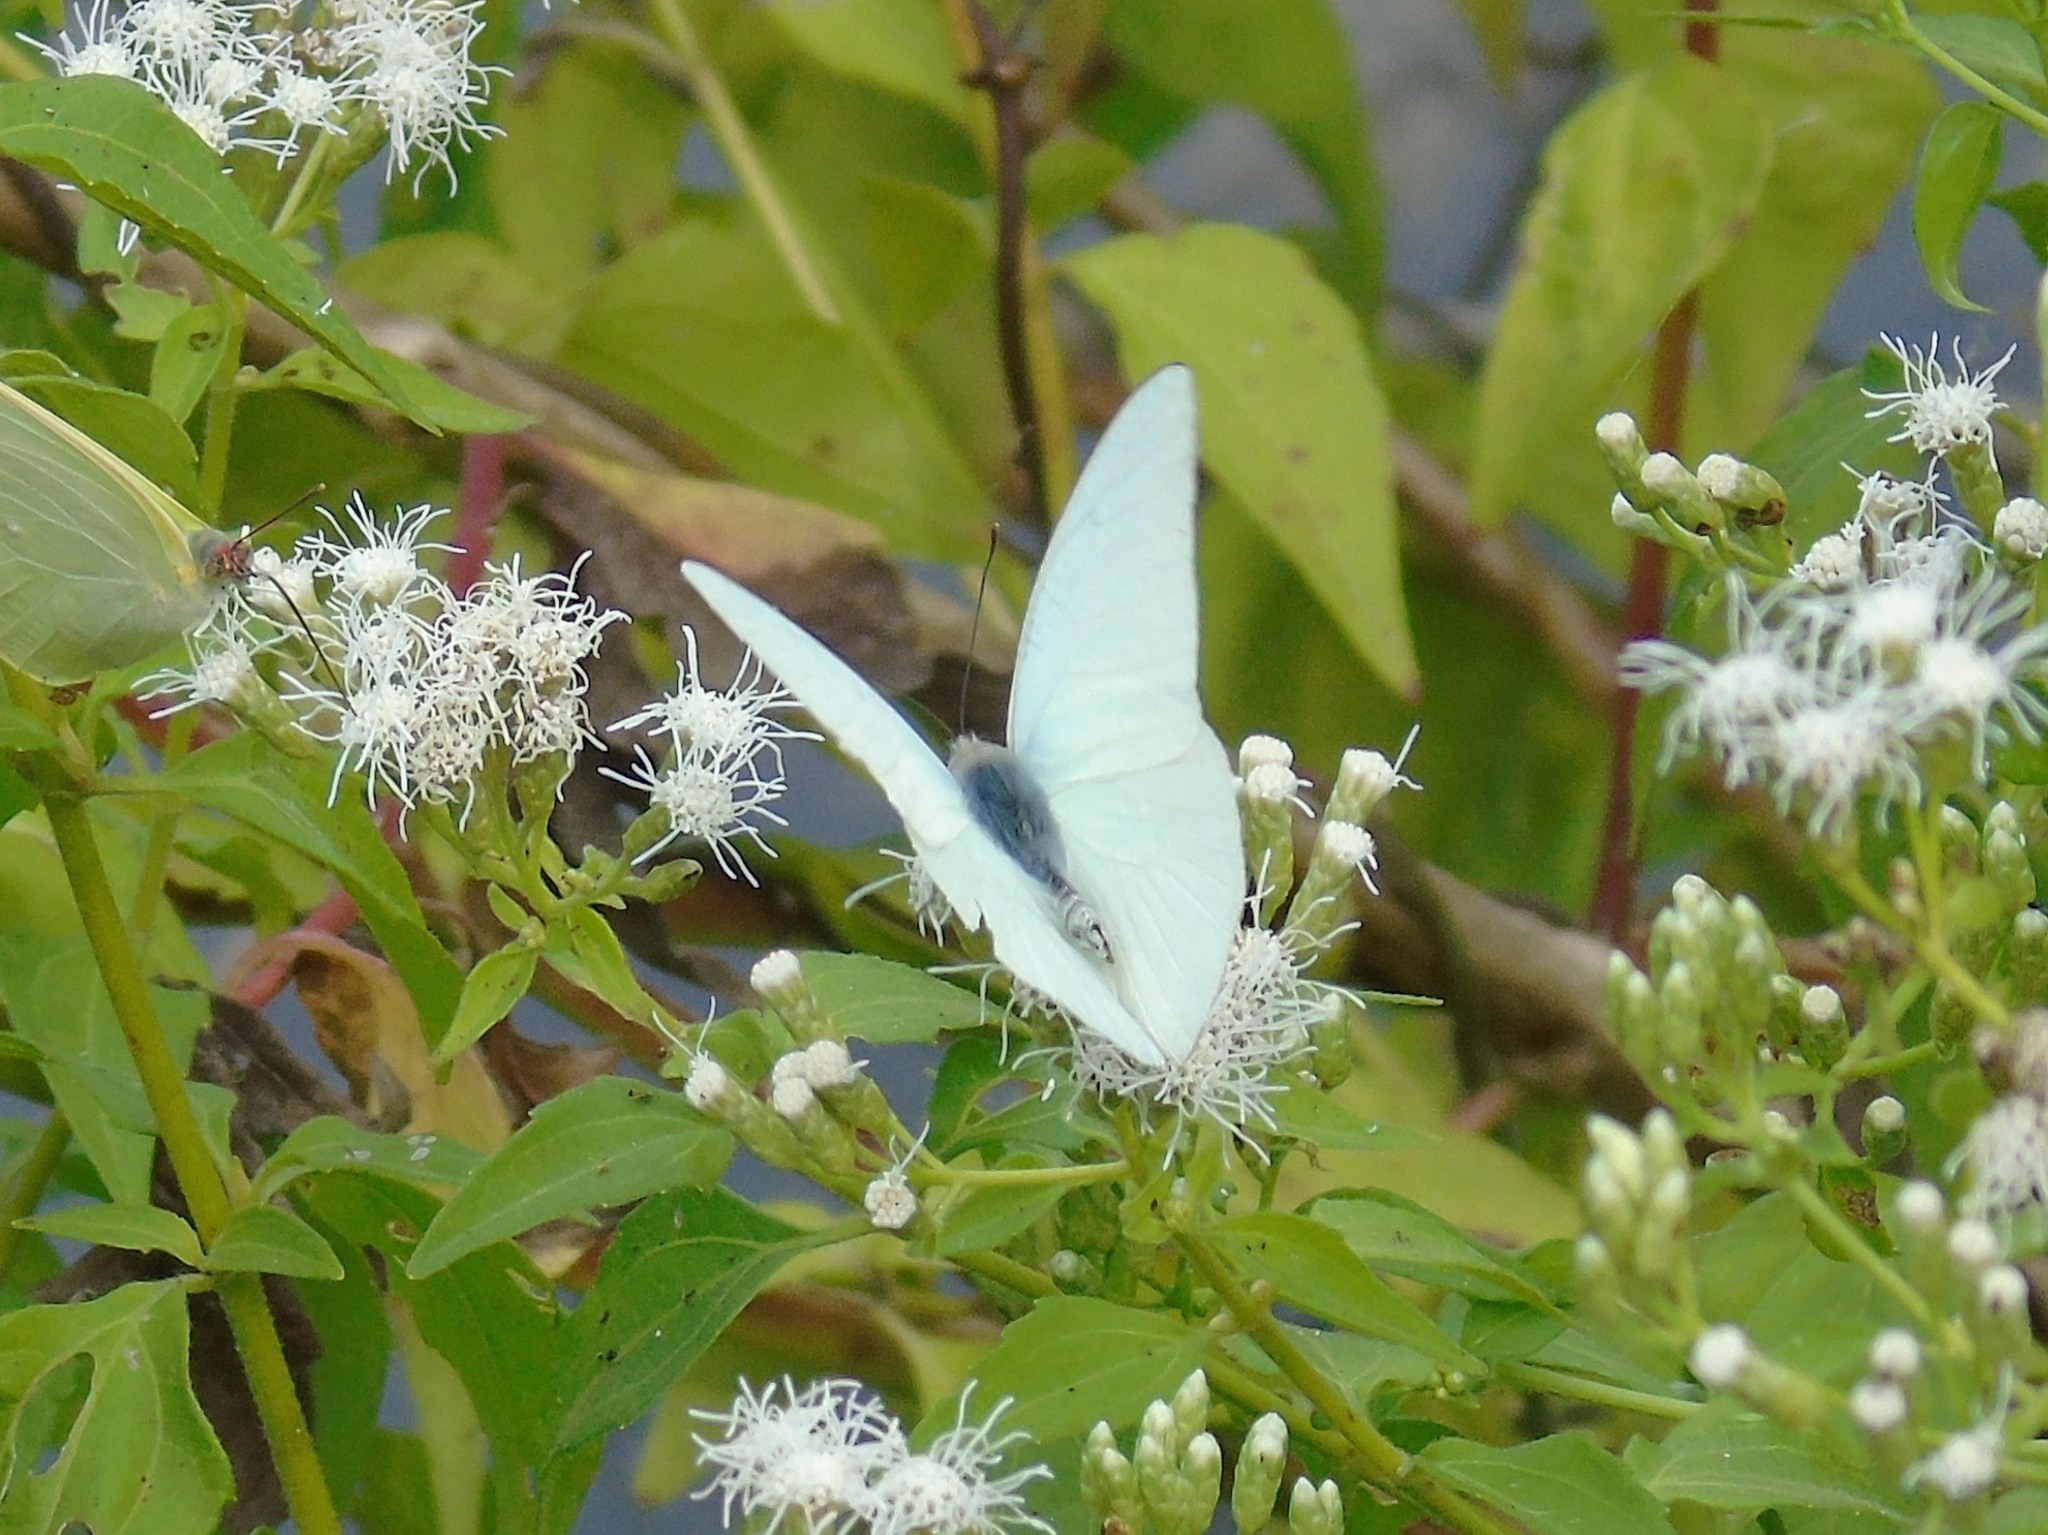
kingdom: Animalia
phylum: Arthropoda
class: Insecta
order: Lepidoptera
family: Pieridae
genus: Glutophrissa
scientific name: Glutophrissa drusilla
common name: Florida white
